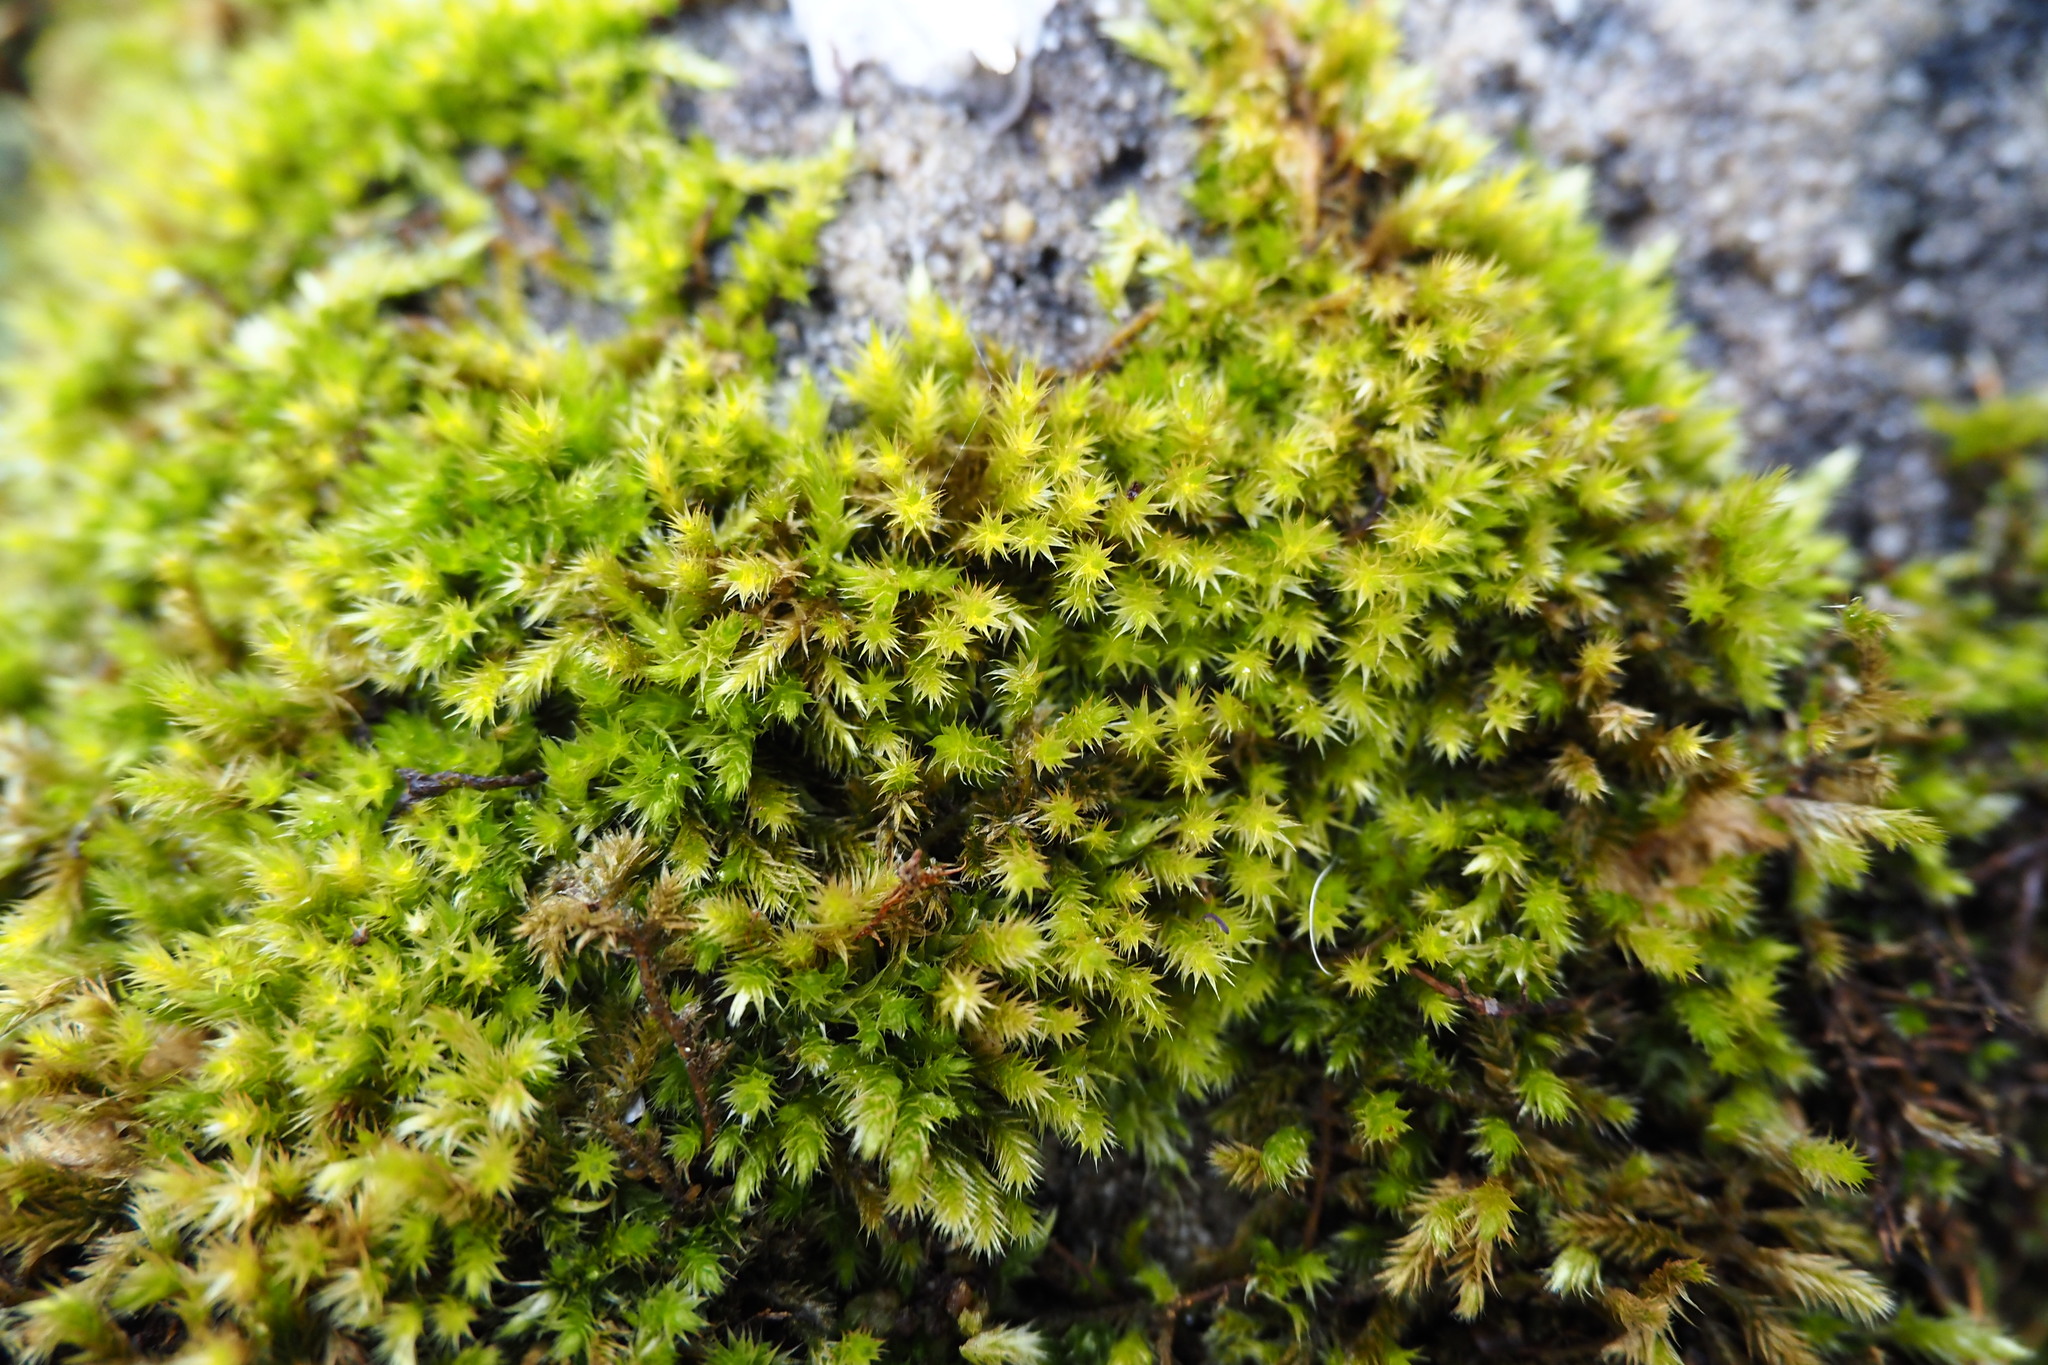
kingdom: Plantae
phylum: Bryophyta
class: Bryopsida
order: Hypnales
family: Brachytheciaceae
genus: Homalothecium
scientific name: Homalothecium sericeum
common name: Silky wall feather-moss
